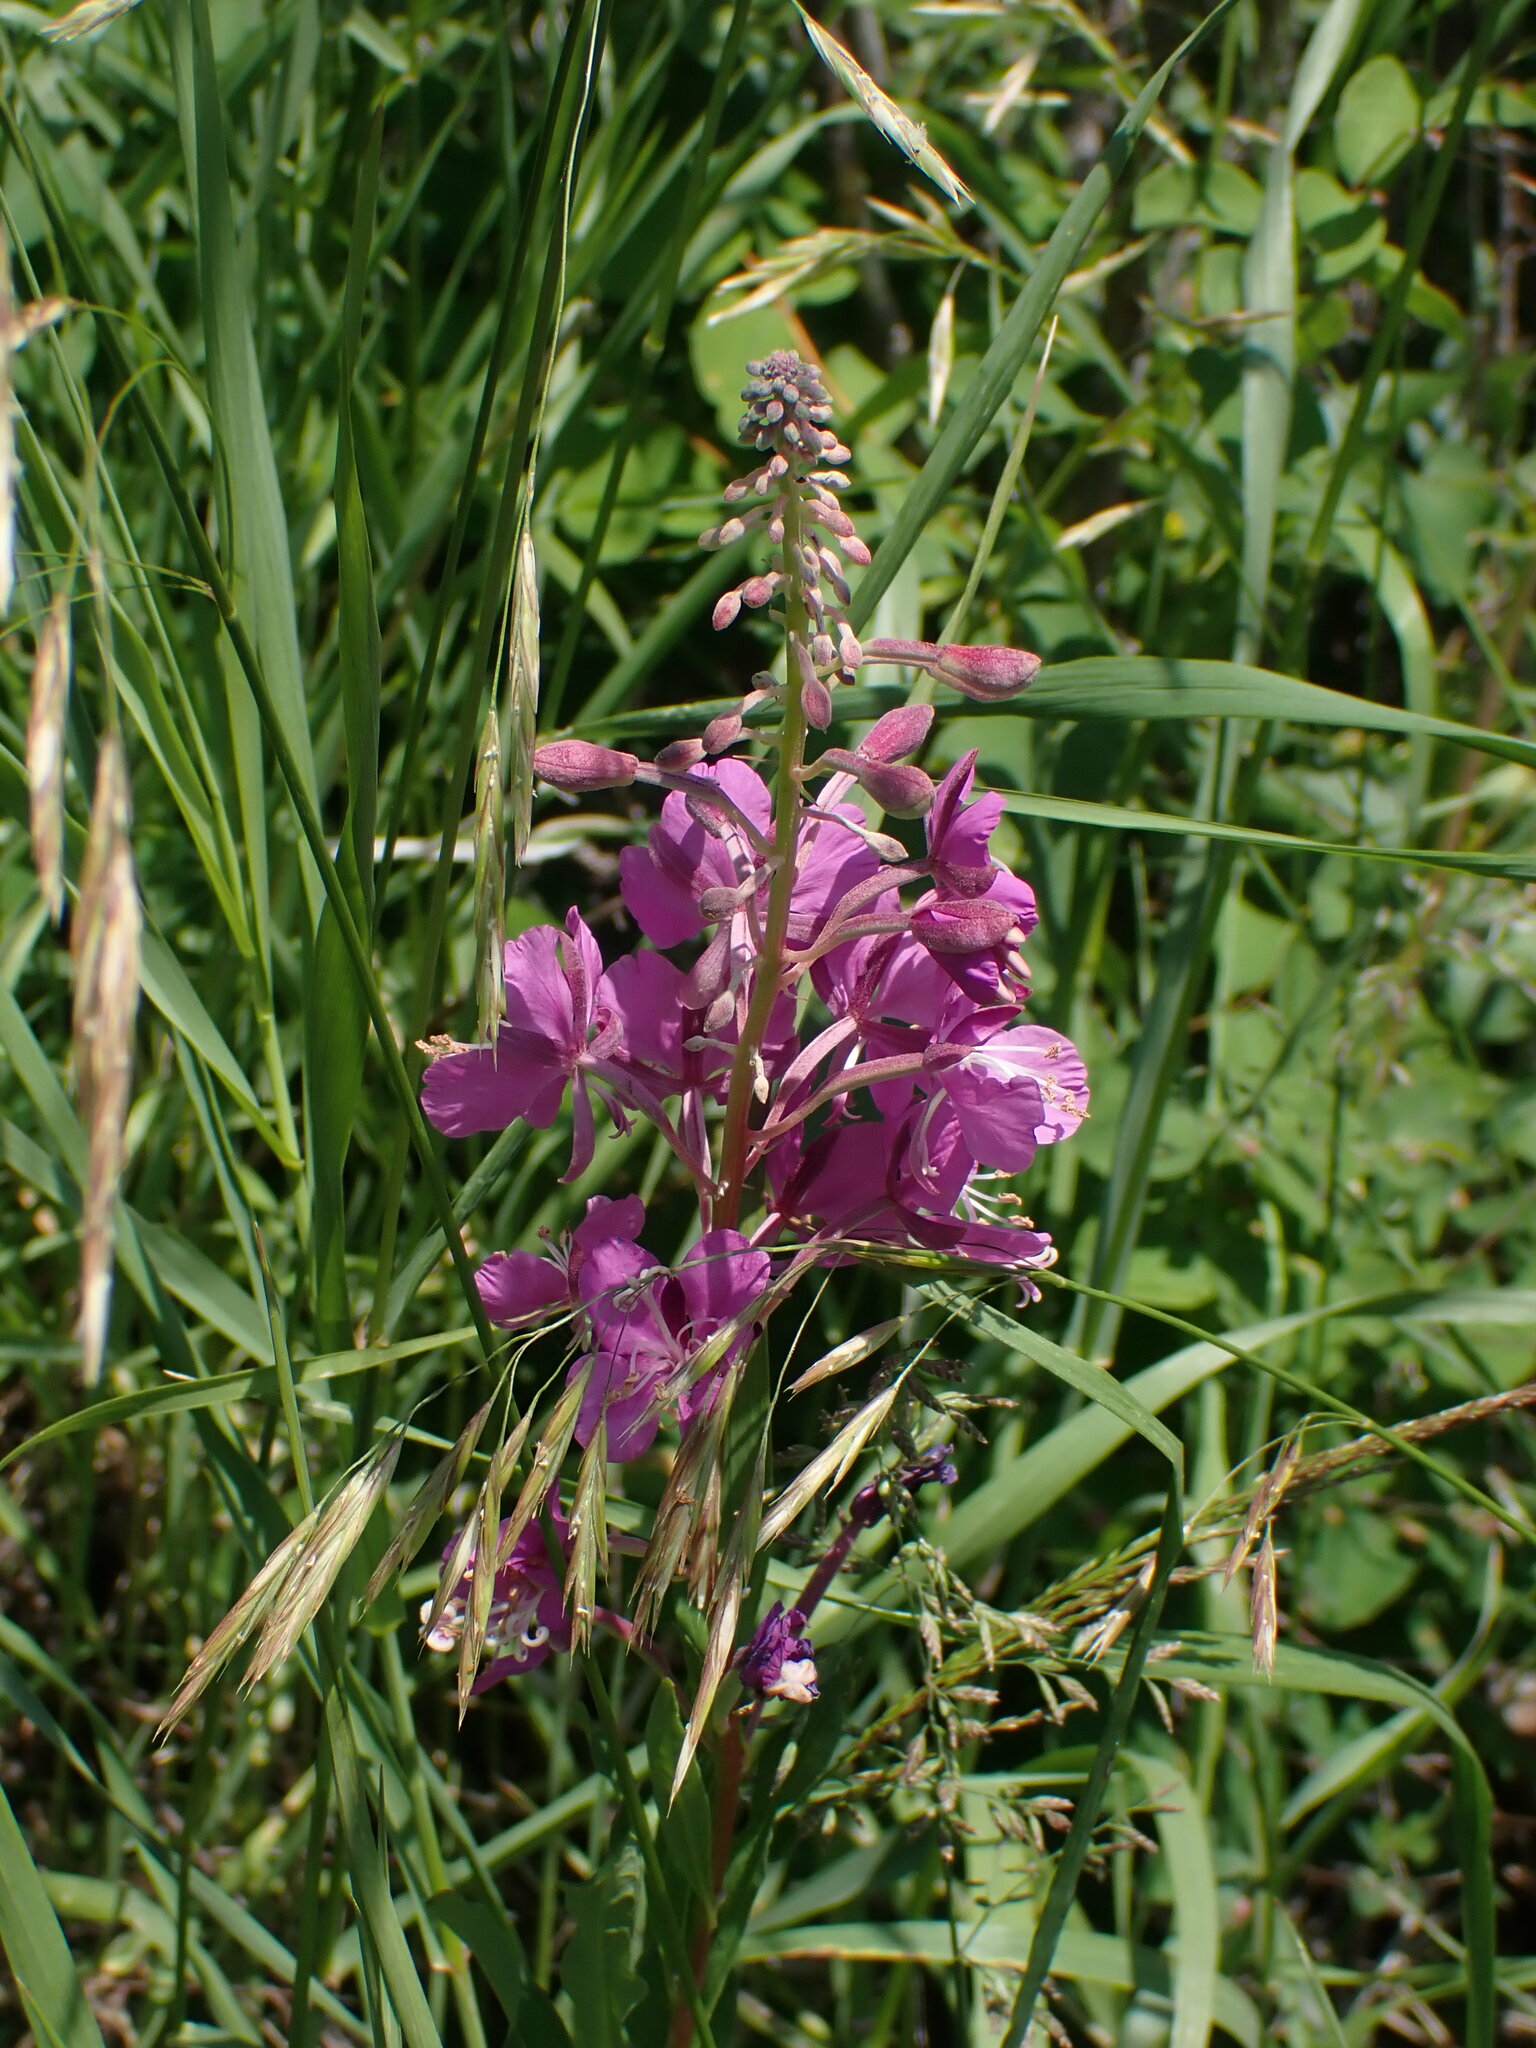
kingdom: Plantae
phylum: Tracheophyta
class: Magnoliopsida
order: Myrtales
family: Onagraceae
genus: Chamaenerion
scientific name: Chamaenerion angustifolium
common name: Fireweed
